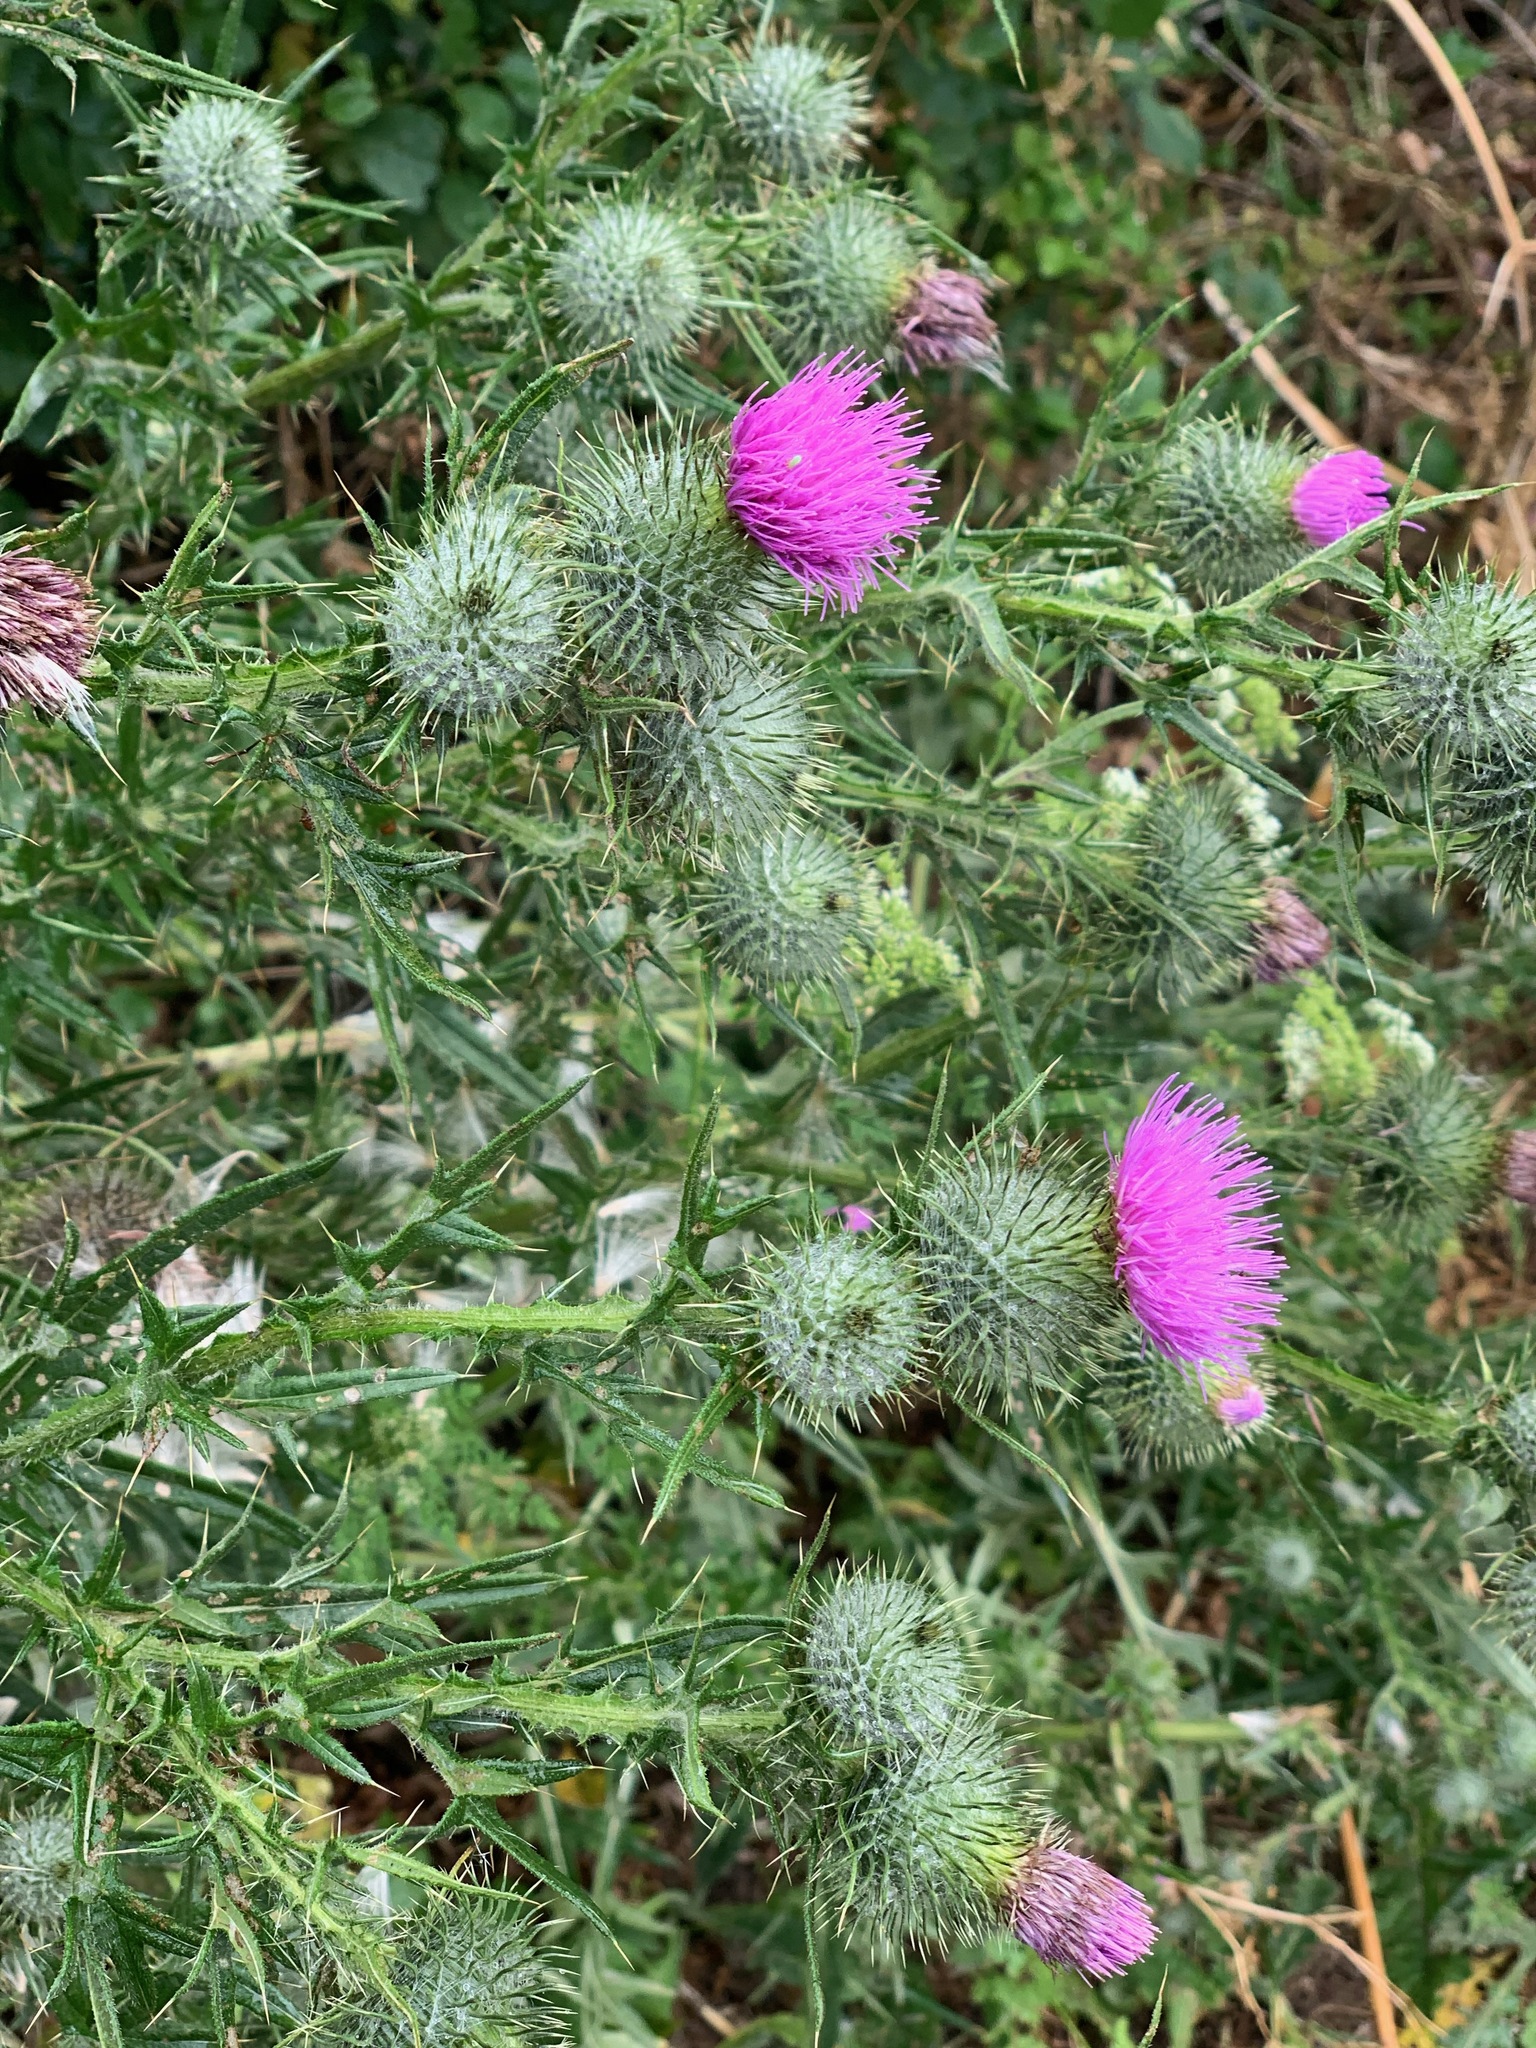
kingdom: Plantae
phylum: Tracheophyta
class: Magnoliopsida
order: Asterales
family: Asteraceae
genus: Cirsium
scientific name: Cirsium vulgare
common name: Bull thistle
